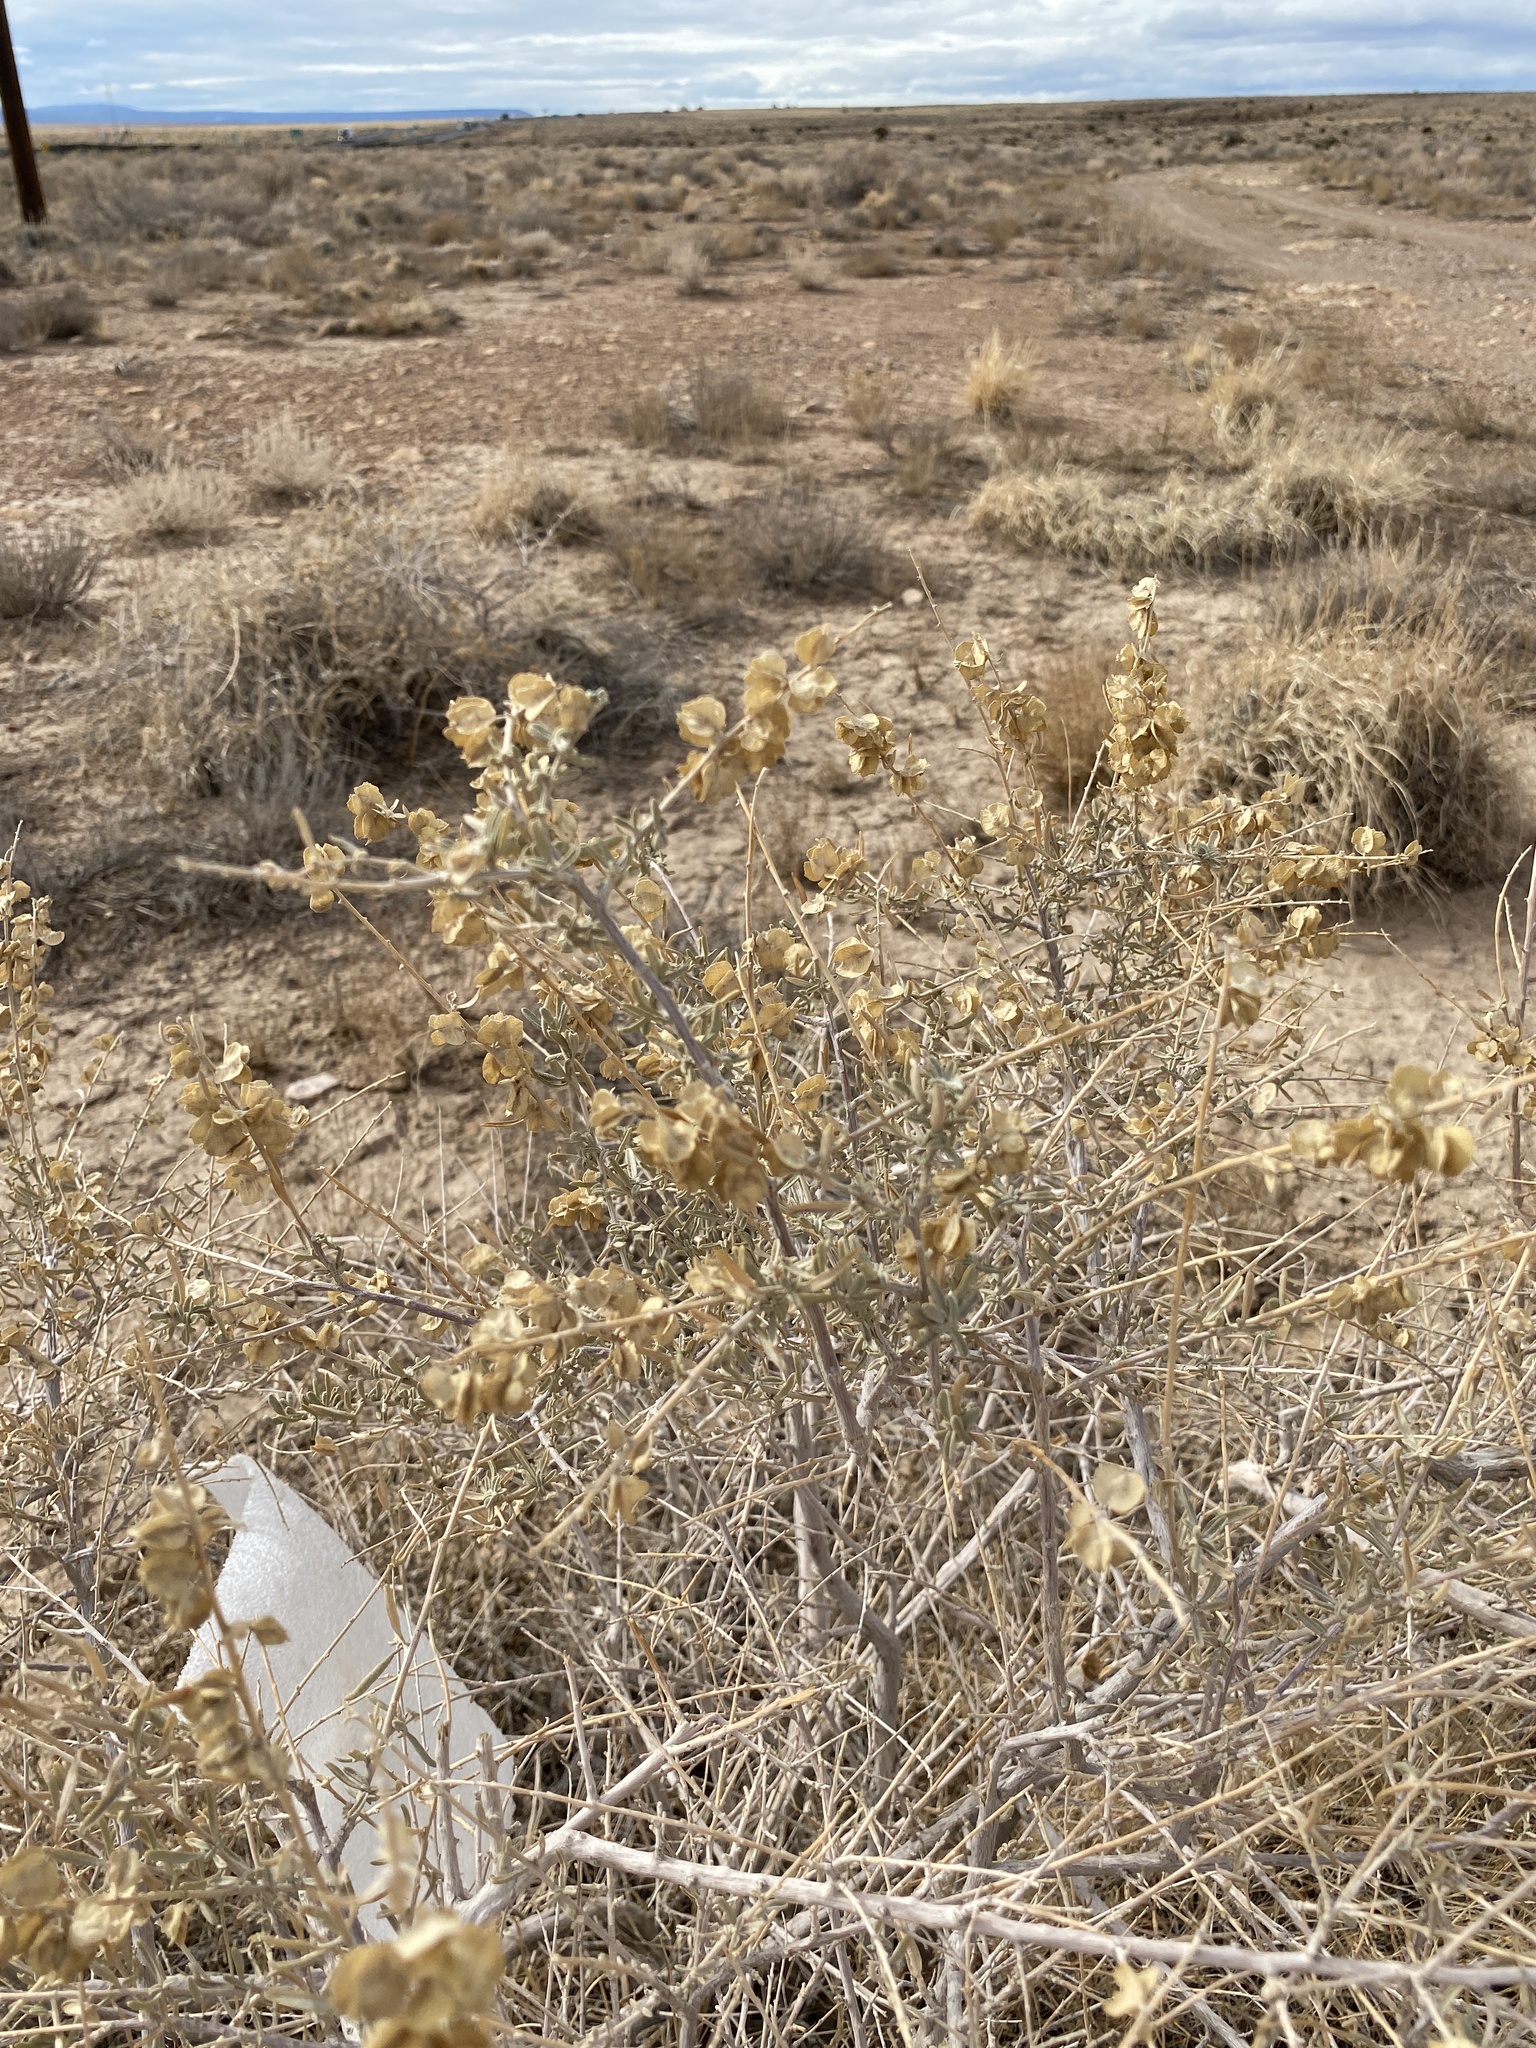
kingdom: Plantae
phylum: Tracheophyta
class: Magnoliopsida
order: Caryophyllales
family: Amaranthaceae
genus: Atriplex
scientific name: Atriplex canescens
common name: Four-wing saltbush
